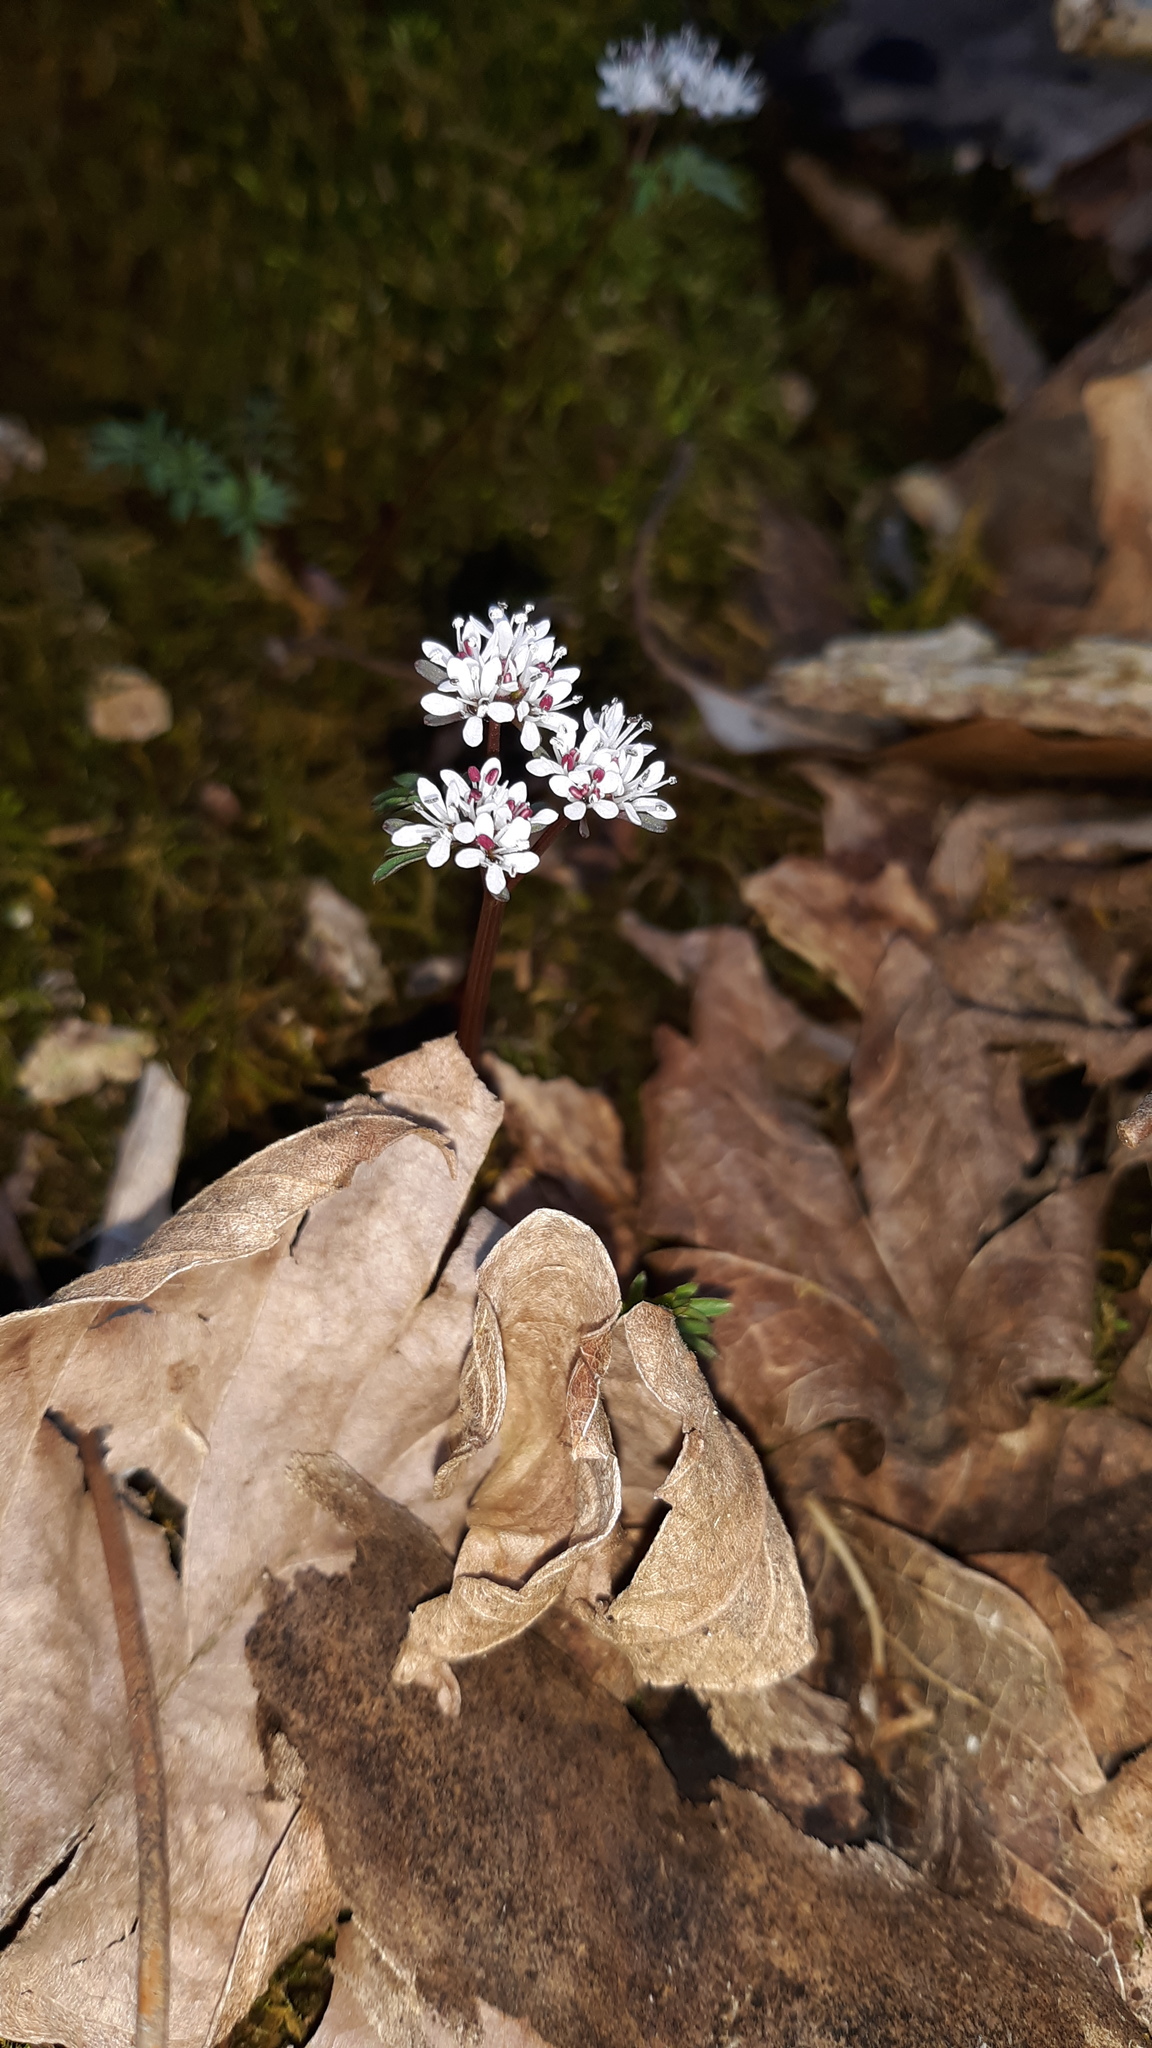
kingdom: Plantae
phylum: Tracheophyta
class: Magnoliopsida
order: Apiales
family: Apiaceae
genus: Erigenia
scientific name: Erigenia bulbosa
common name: Pepper-and-salt
